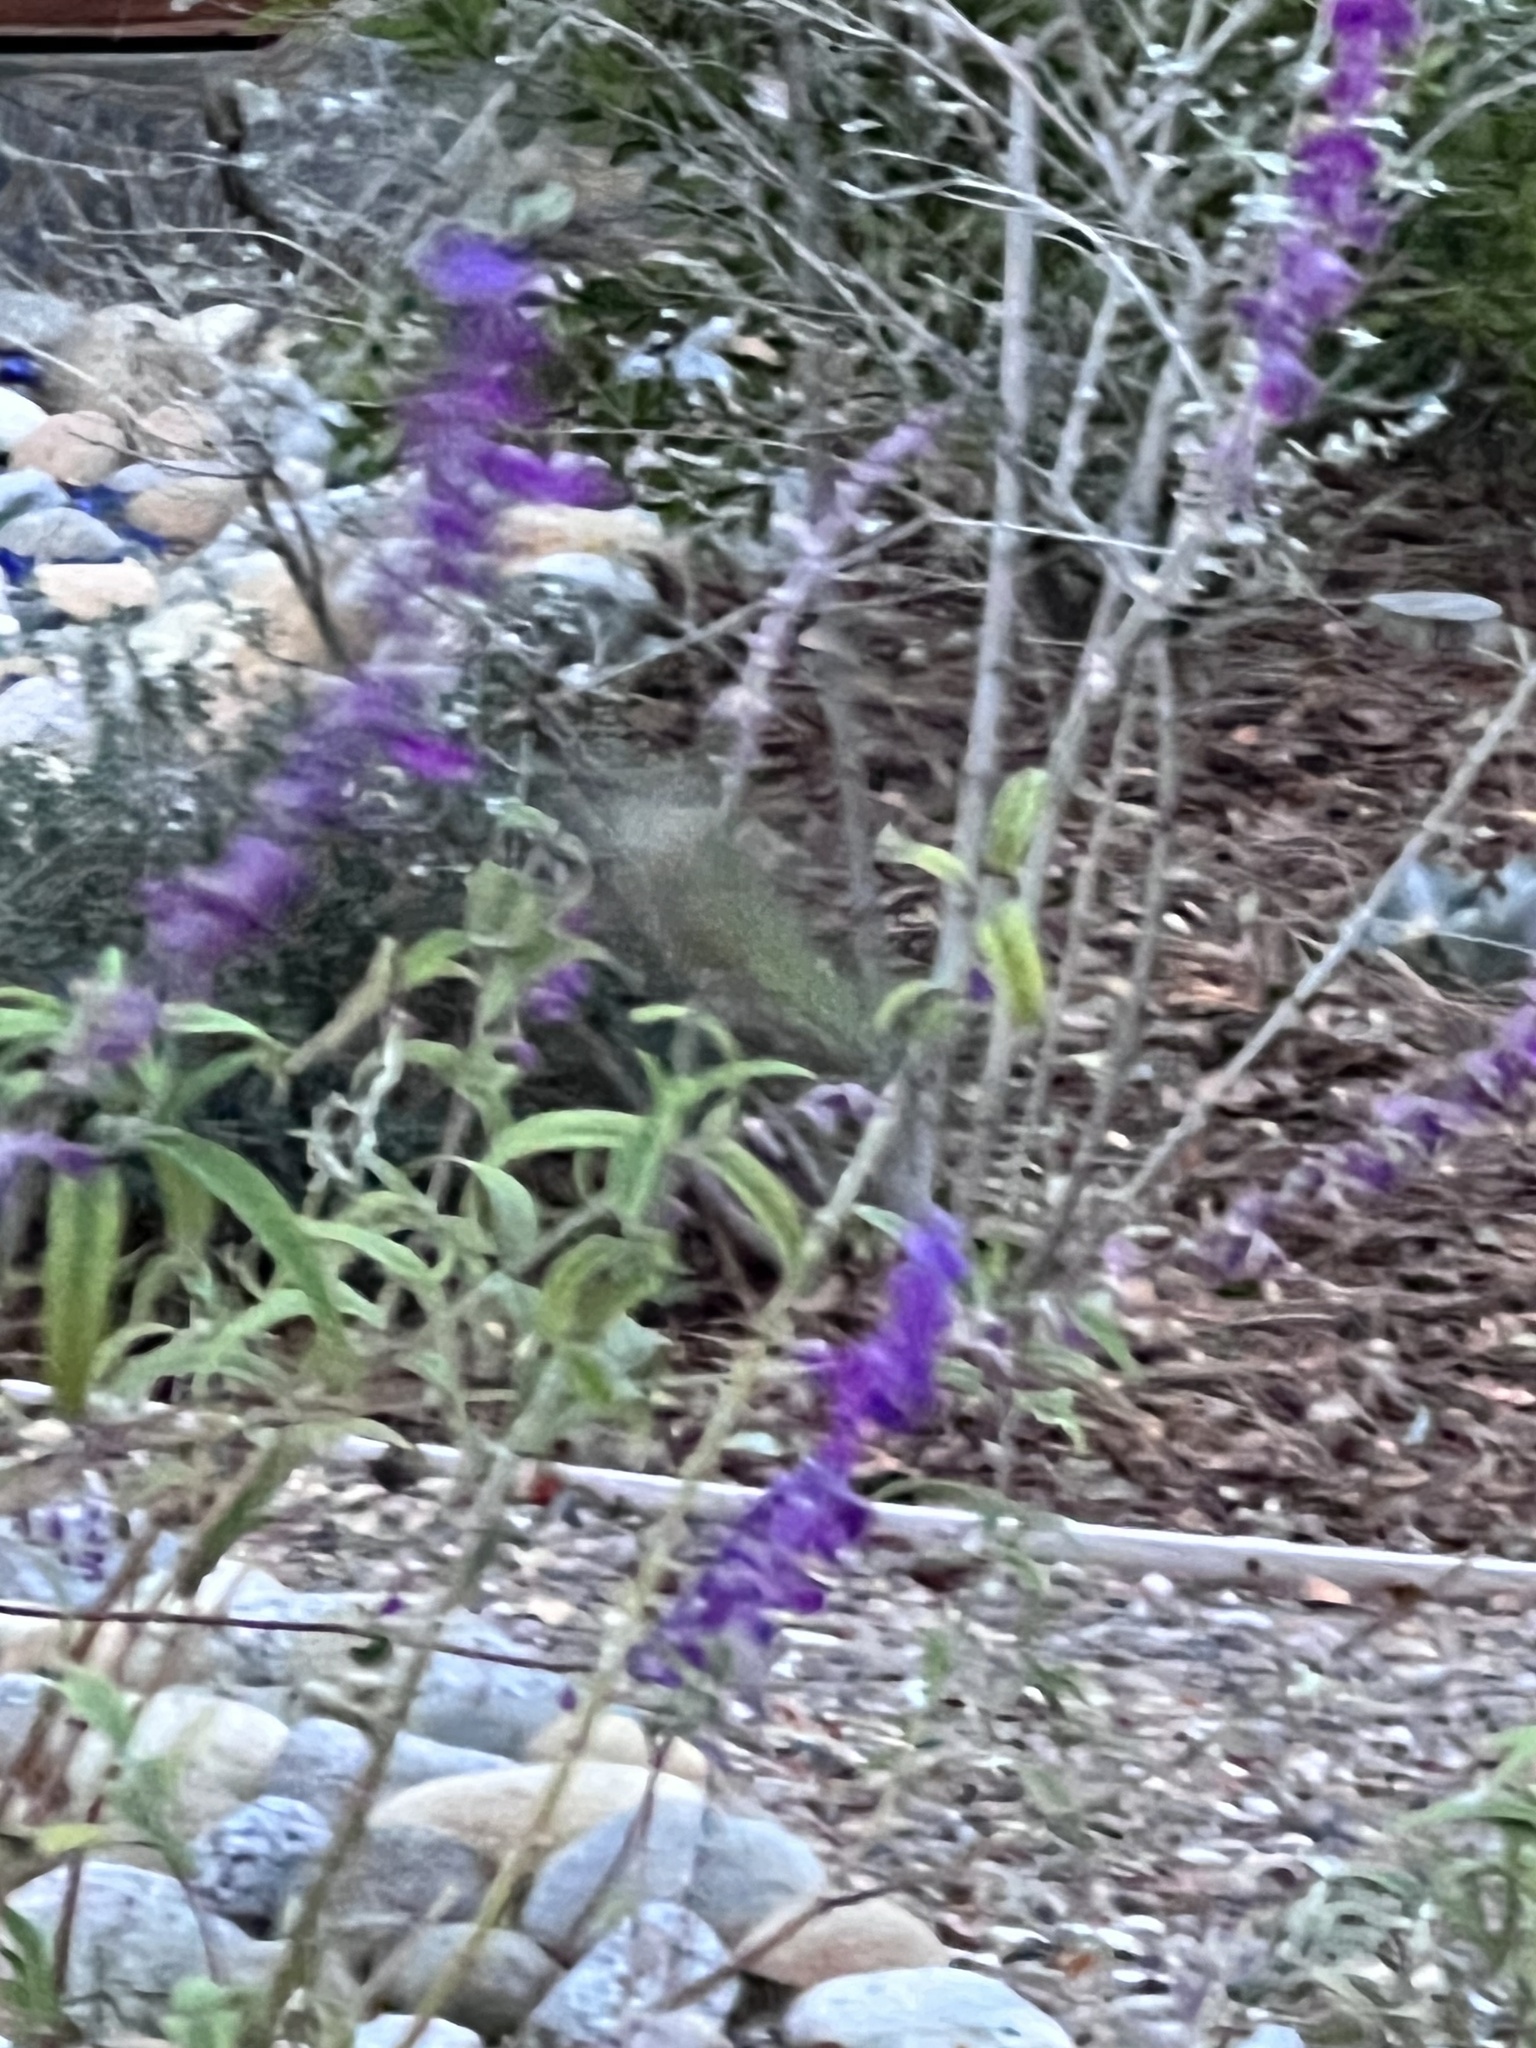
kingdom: Animalia
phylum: Chordata
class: Aves
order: Apodiformes
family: Trochilidae
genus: Calypte
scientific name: Calypte anna
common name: Anna's hummingbird
